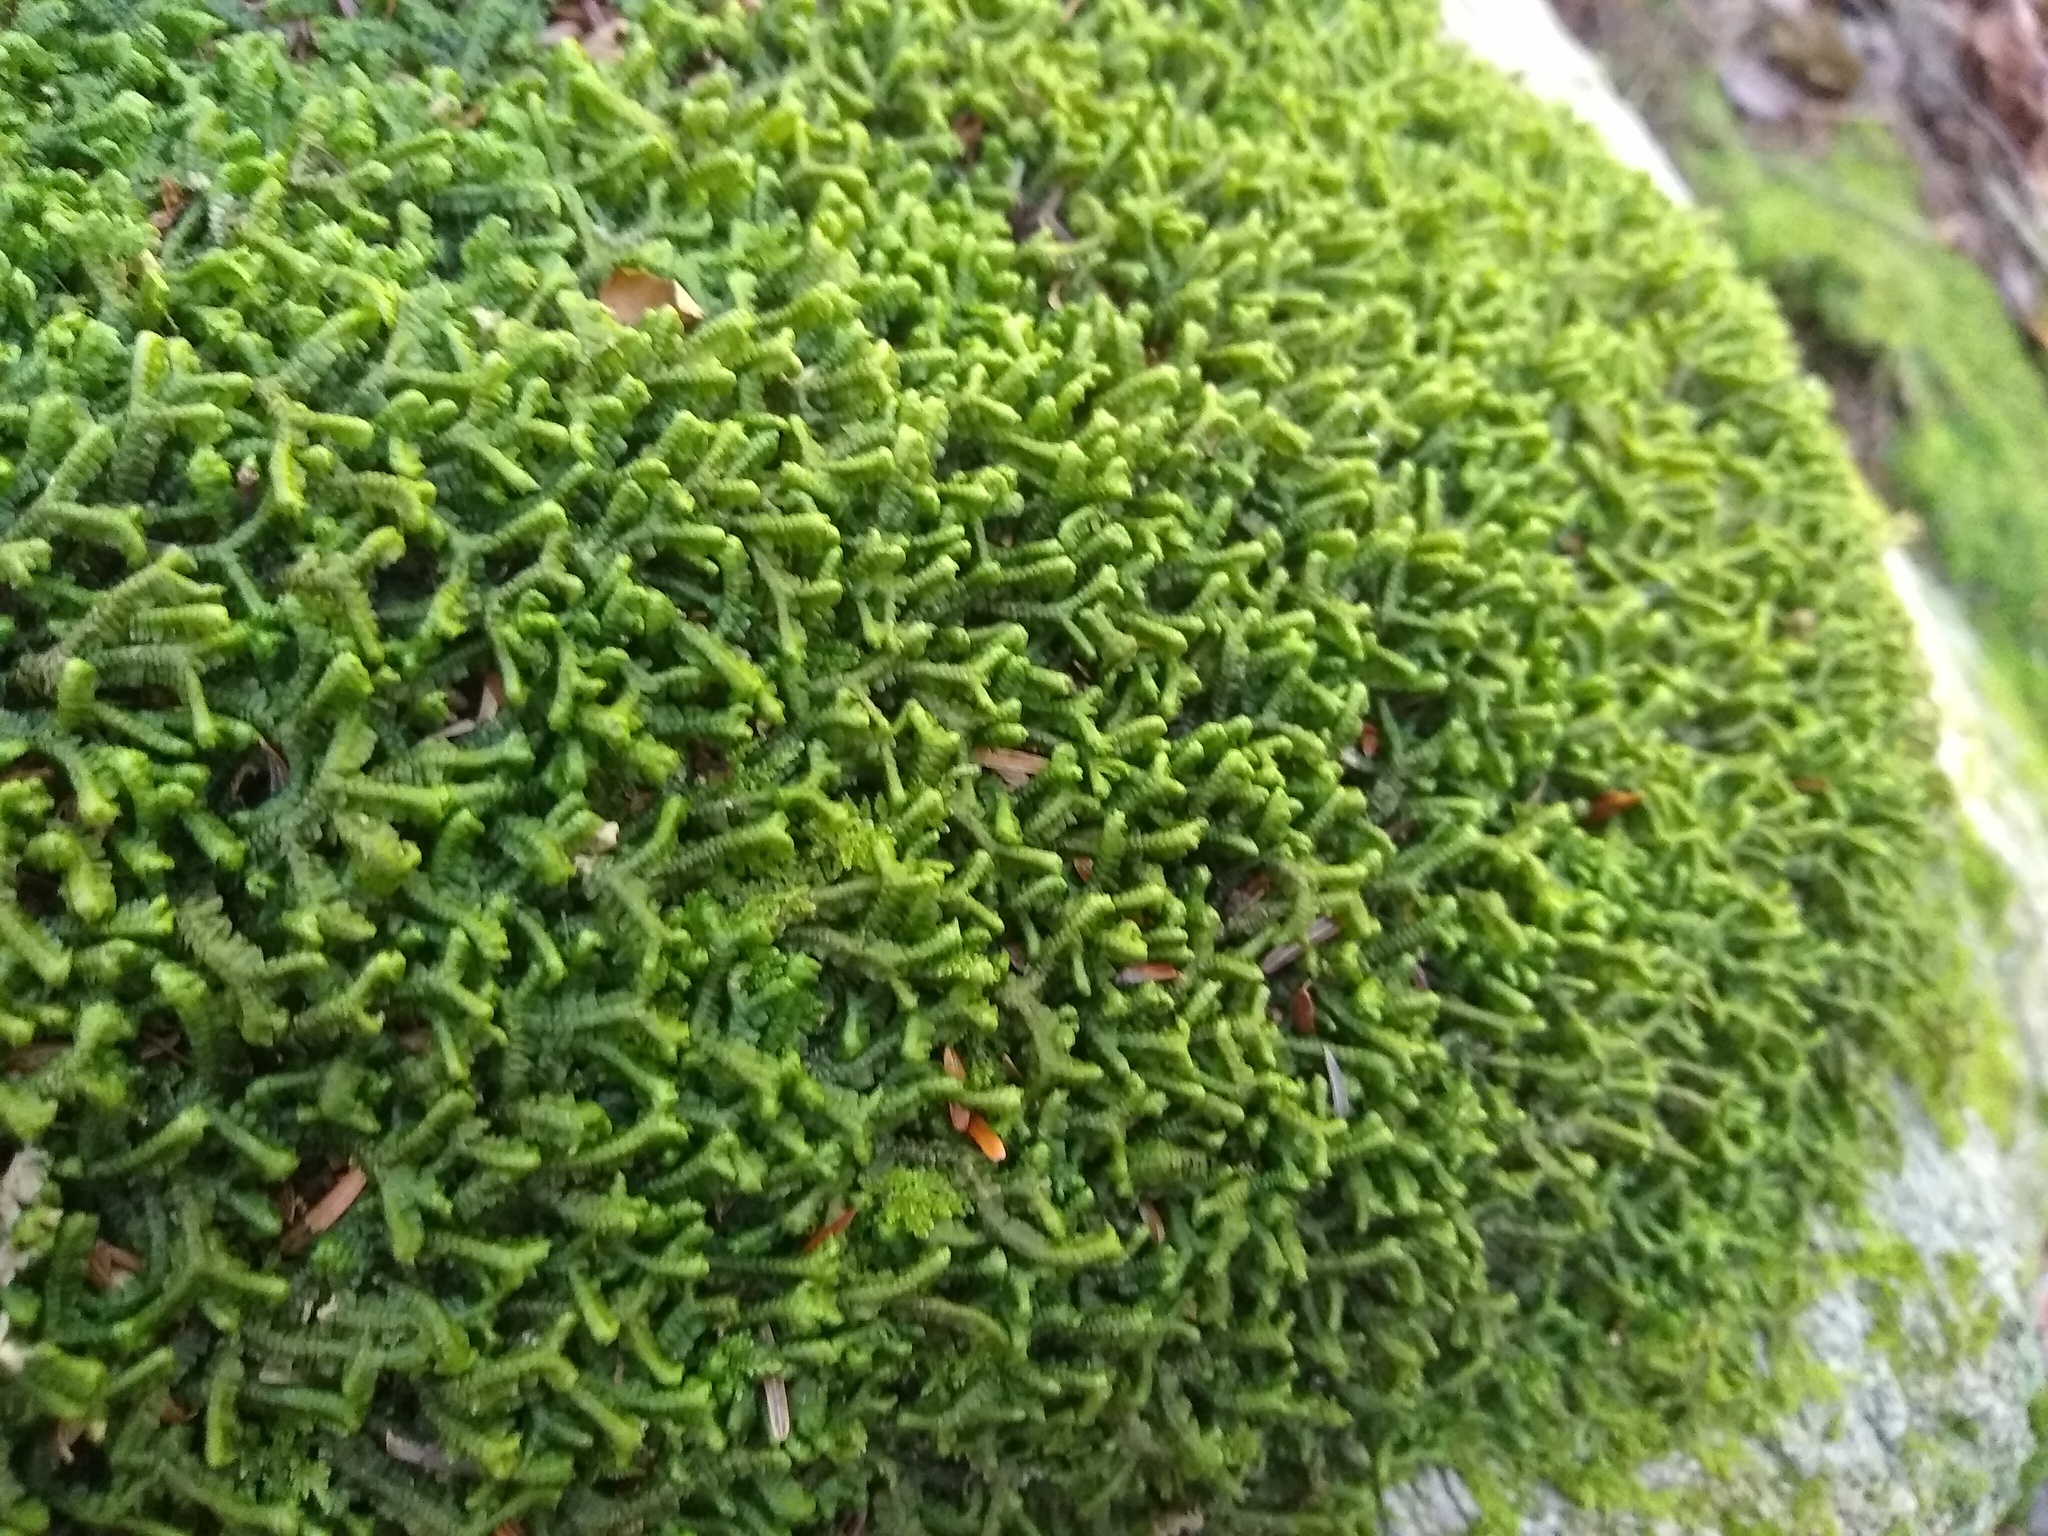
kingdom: Plantae
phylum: Marchantiophyta
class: Jungermanniopsida
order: Jungermanniales
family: Lepidoziaceae
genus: Bazzania
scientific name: Bazzania trilobata
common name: Three-lobed whipwort
